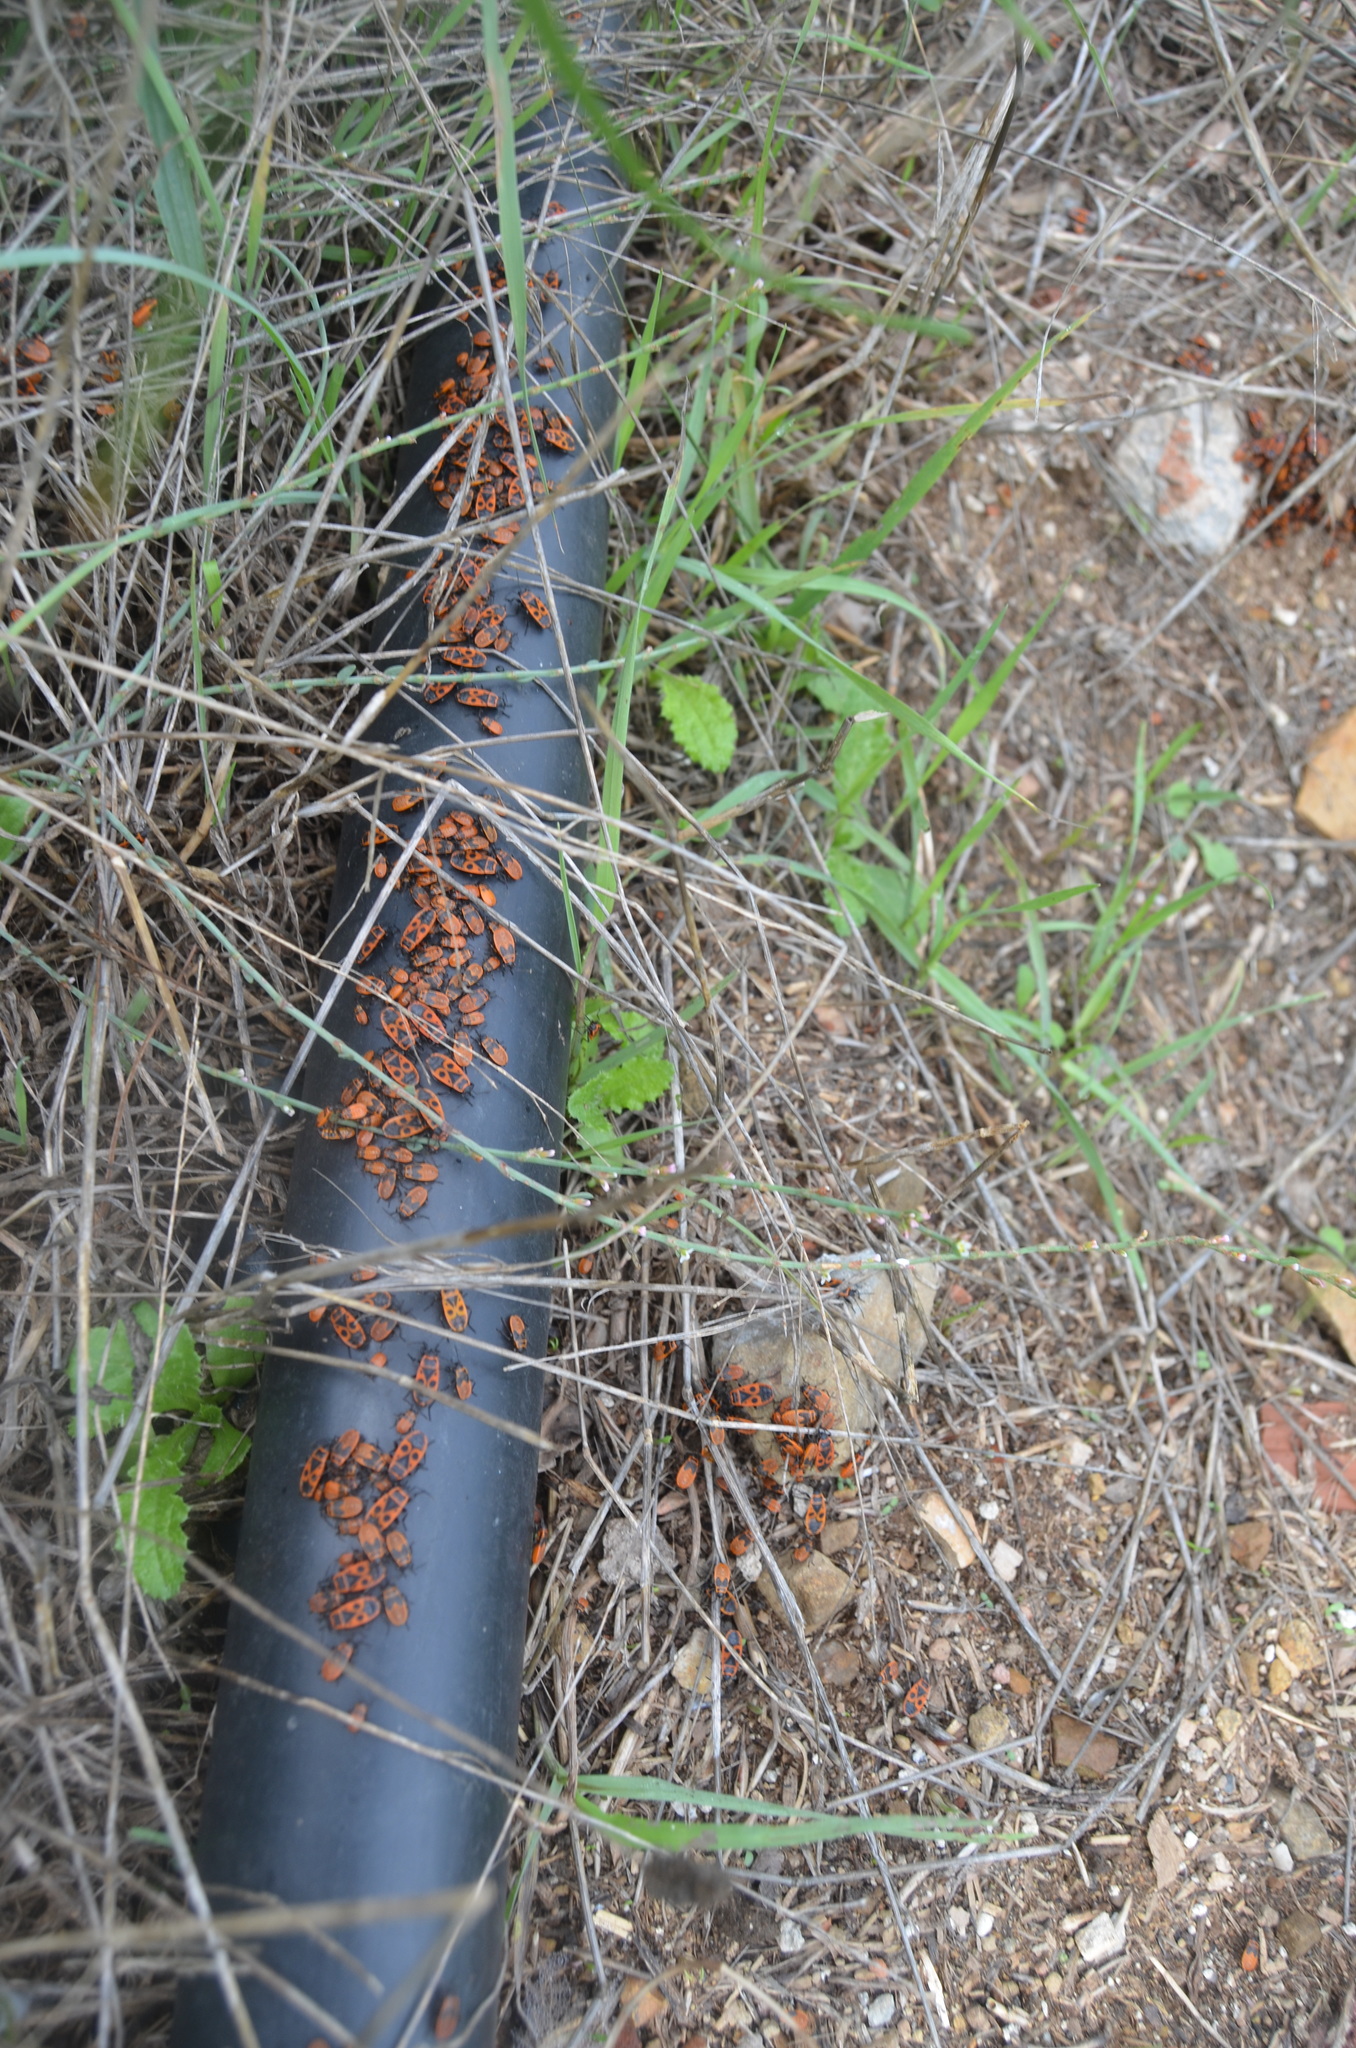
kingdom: Animalia
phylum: Arthropoda
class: Insecta
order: Hemiptera
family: Pyrrhocoridae
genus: Pyrrhocoris
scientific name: Pyrrhocoris apterus
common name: Firebug
